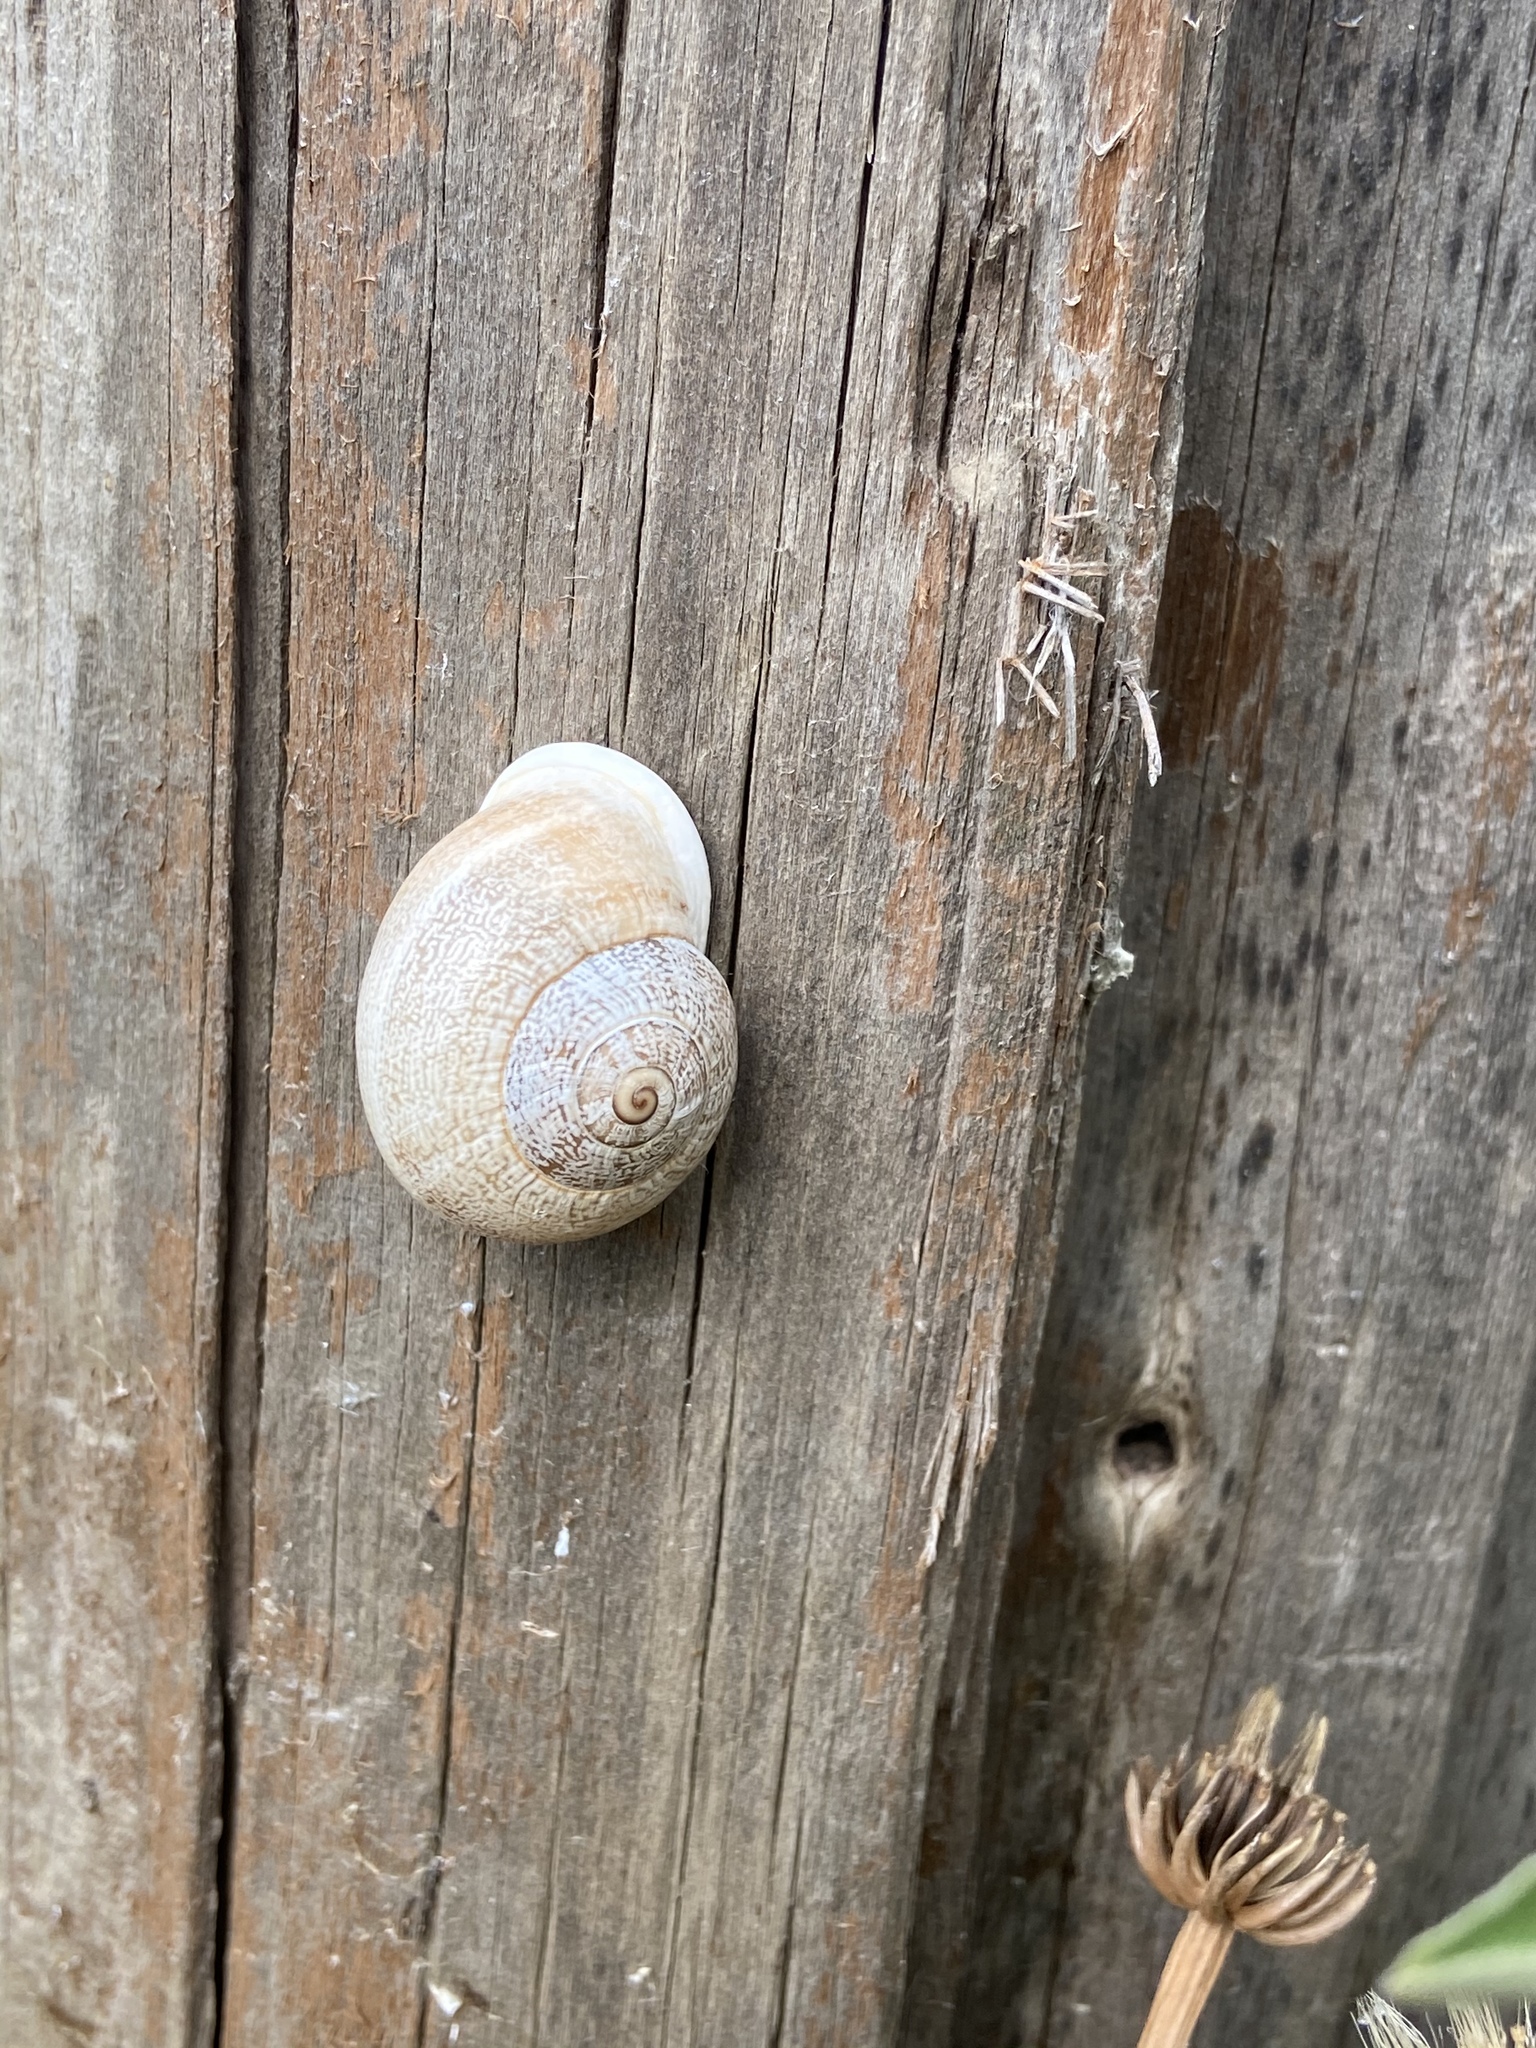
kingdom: Animalia
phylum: Mollusca
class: Gastropoda
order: Stylommatophora
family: Helicidae
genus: Otala
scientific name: Otala lactea
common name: Milk snail
